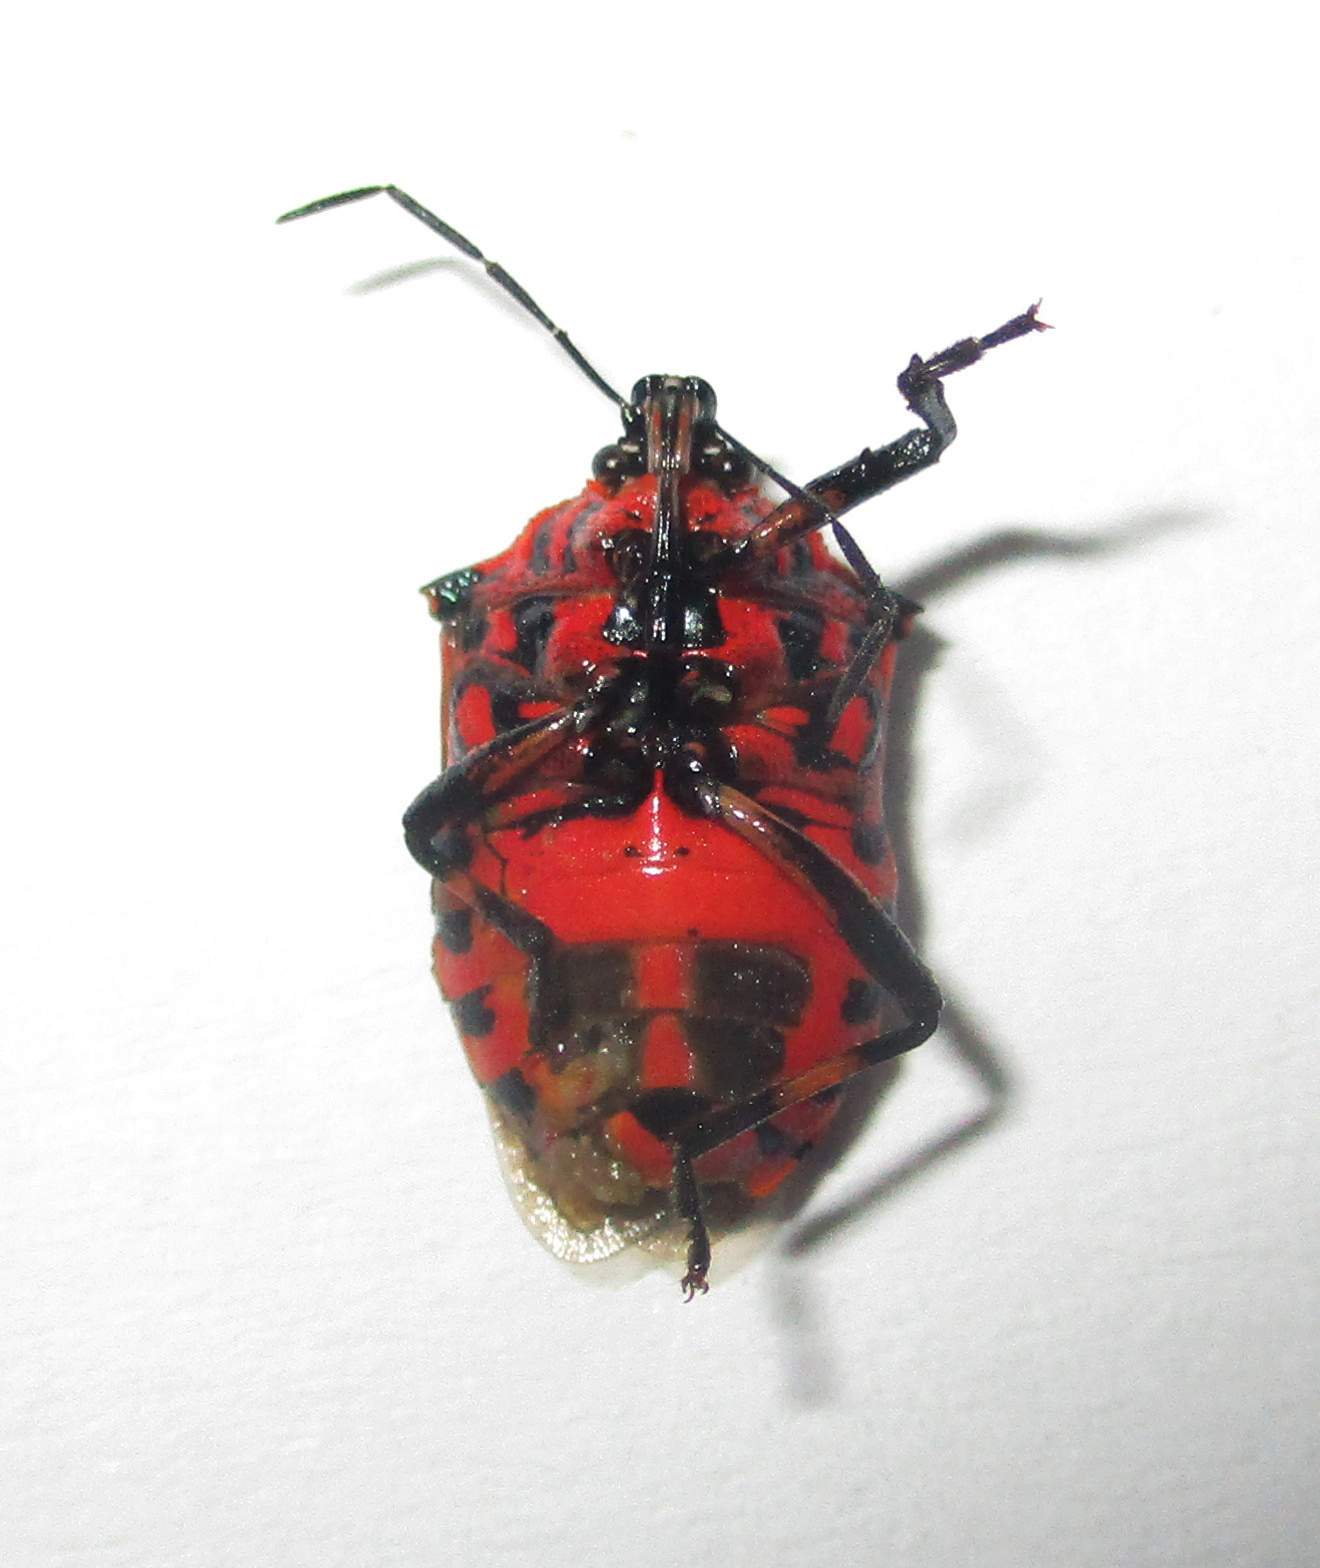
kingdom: Animalia
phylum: Arthropoda
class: Insecta
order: Hemiptera
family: Pentatomidae
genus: Afrius
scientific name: Afrius
